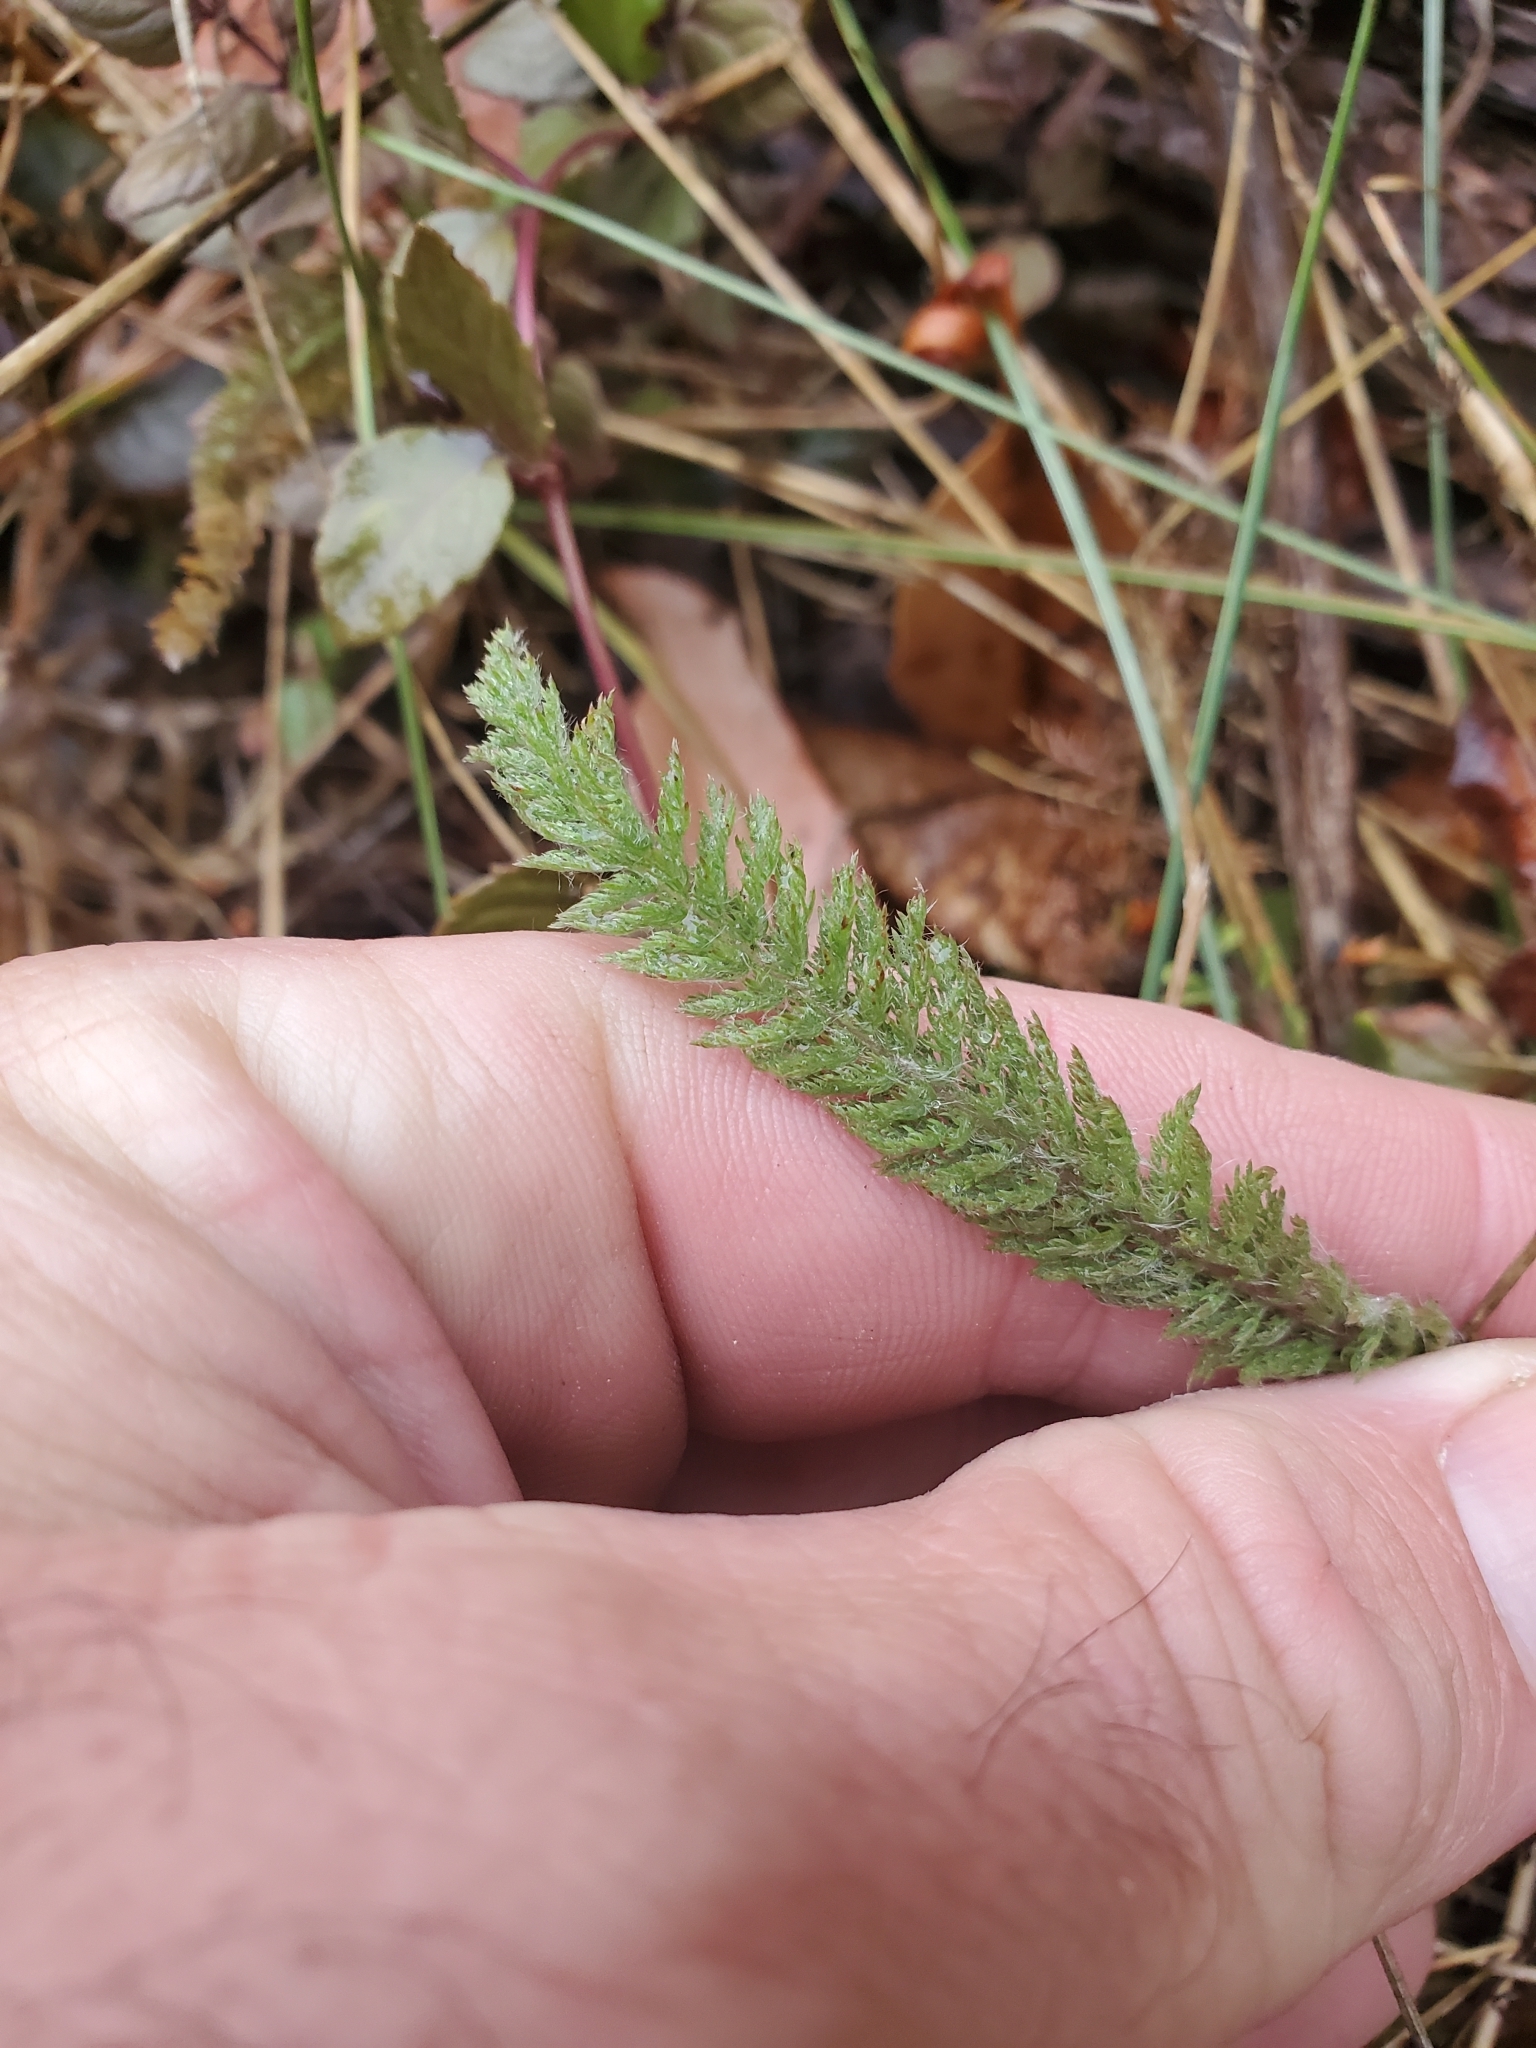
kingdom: Plantae
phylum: Tracheophyta
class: Magnoliopsida
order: Asterales
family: Asteraceae
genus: Achillea
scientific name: Achillea millefolium
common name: Yarrow
